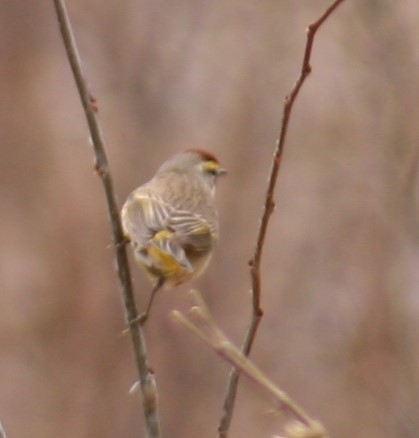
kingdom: Animalia
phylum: Chordata
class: Aves
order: Passeriformes
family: Parulidae
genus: Setophaga
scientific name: Setophaga palmarum
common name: Palm warbler
